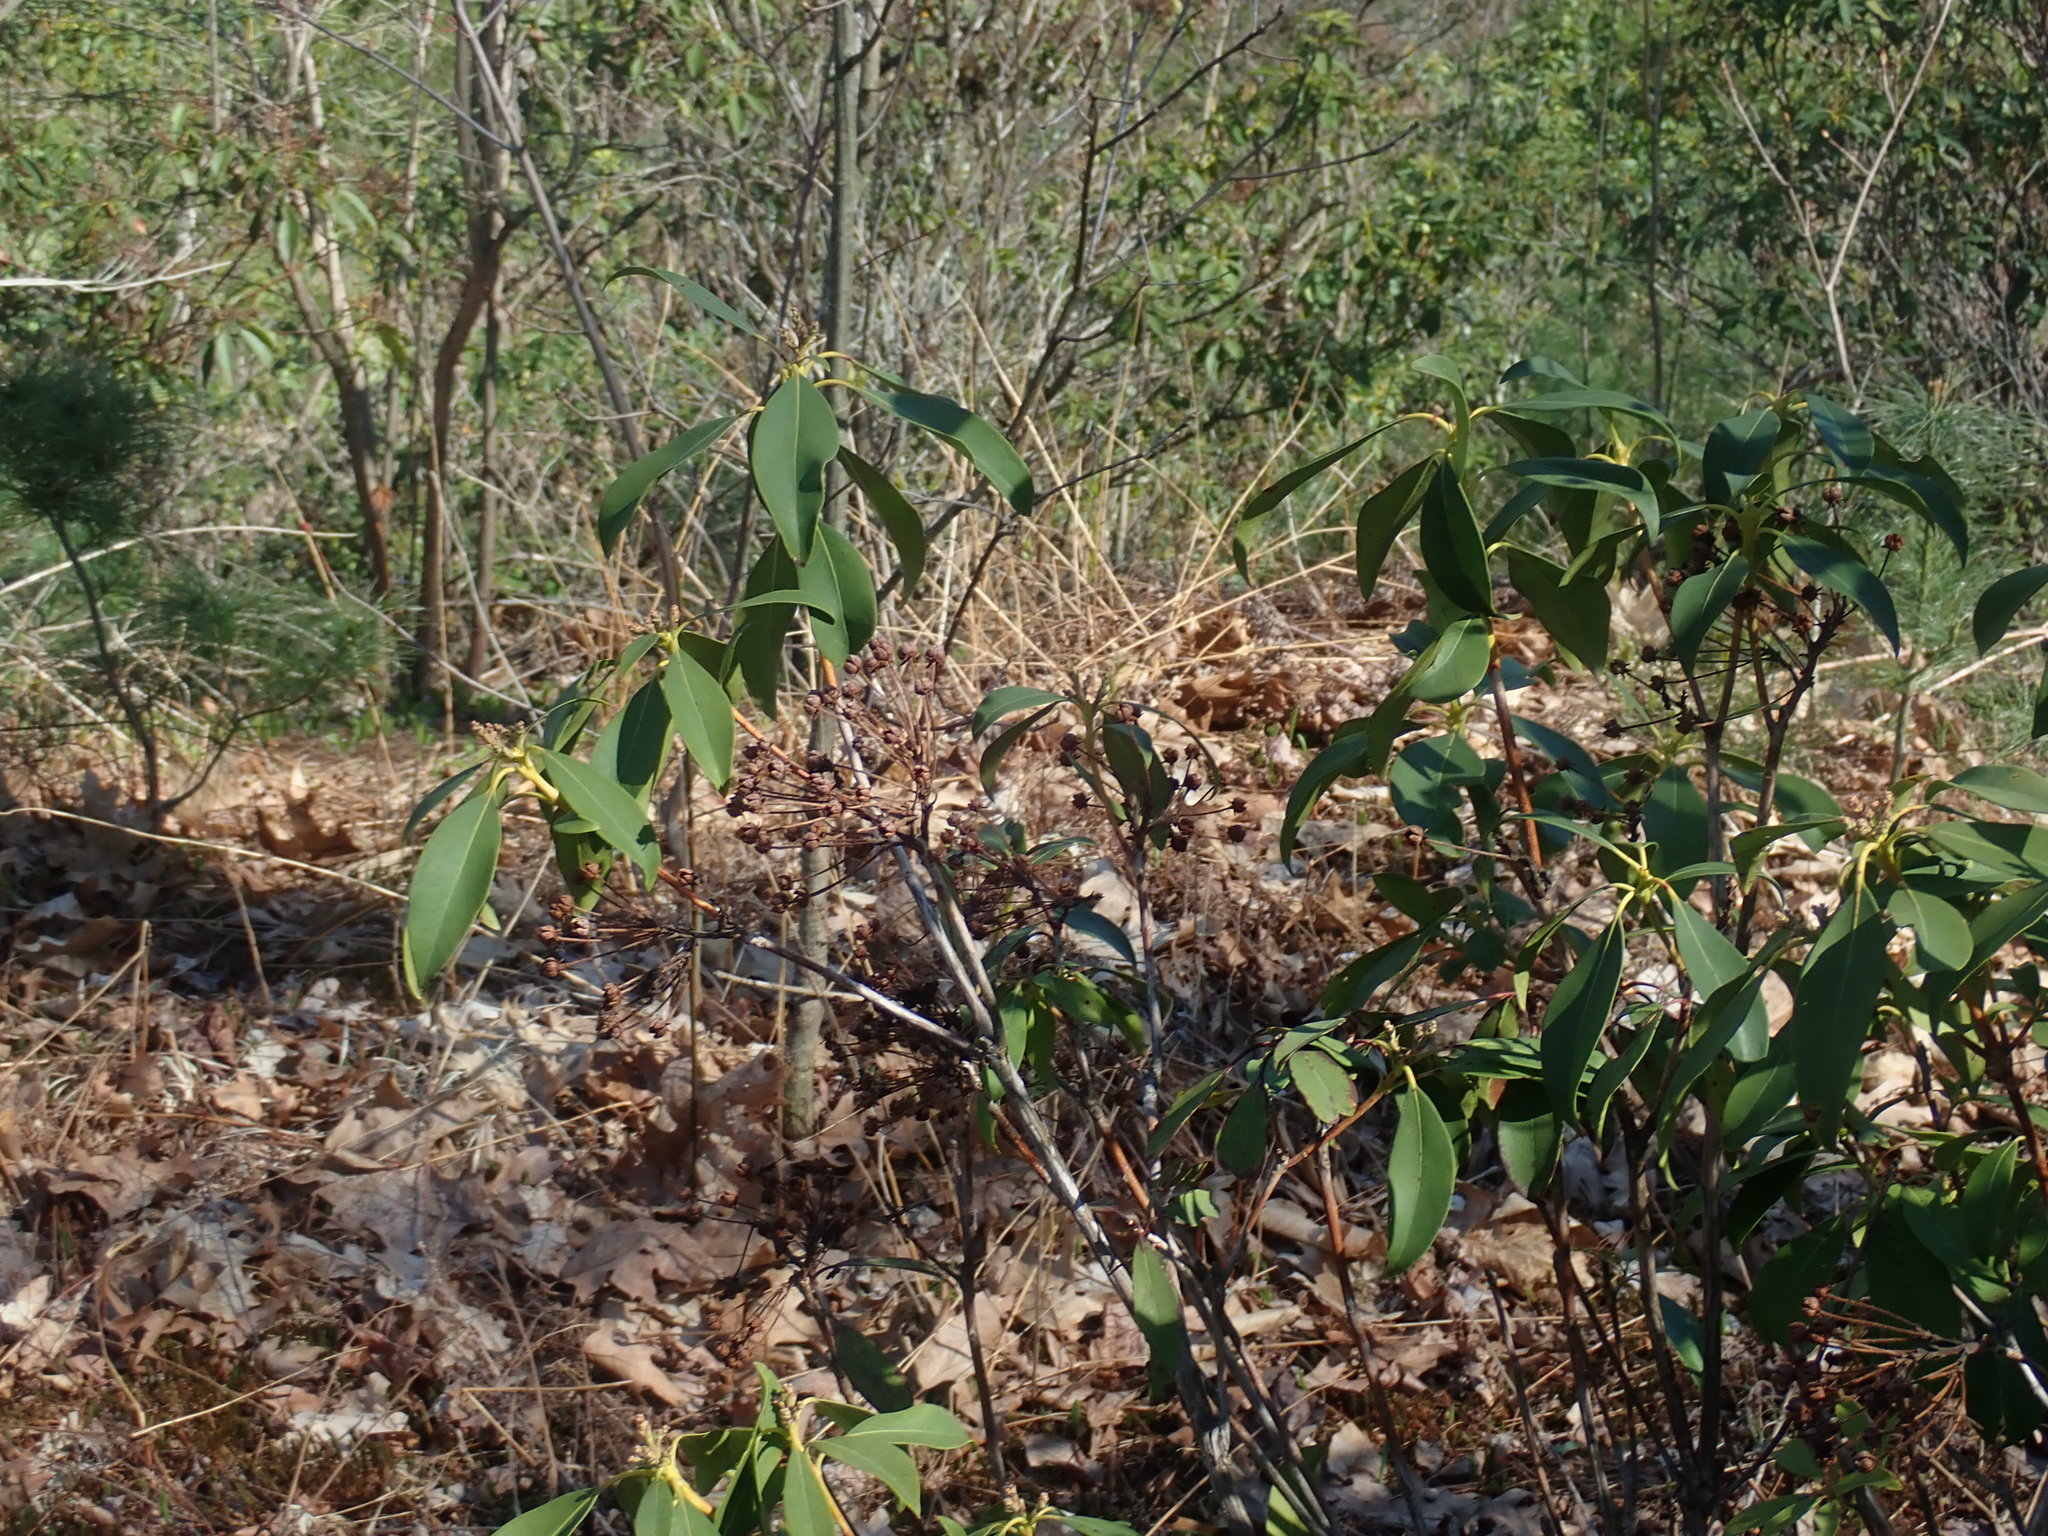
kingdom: Plantae
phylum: Tracheophyta
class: Magnoliopsida
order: Ericales
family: Ericaceae
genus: Kalmia
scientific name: Kalmia latifolia
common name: Mountain-laurel
